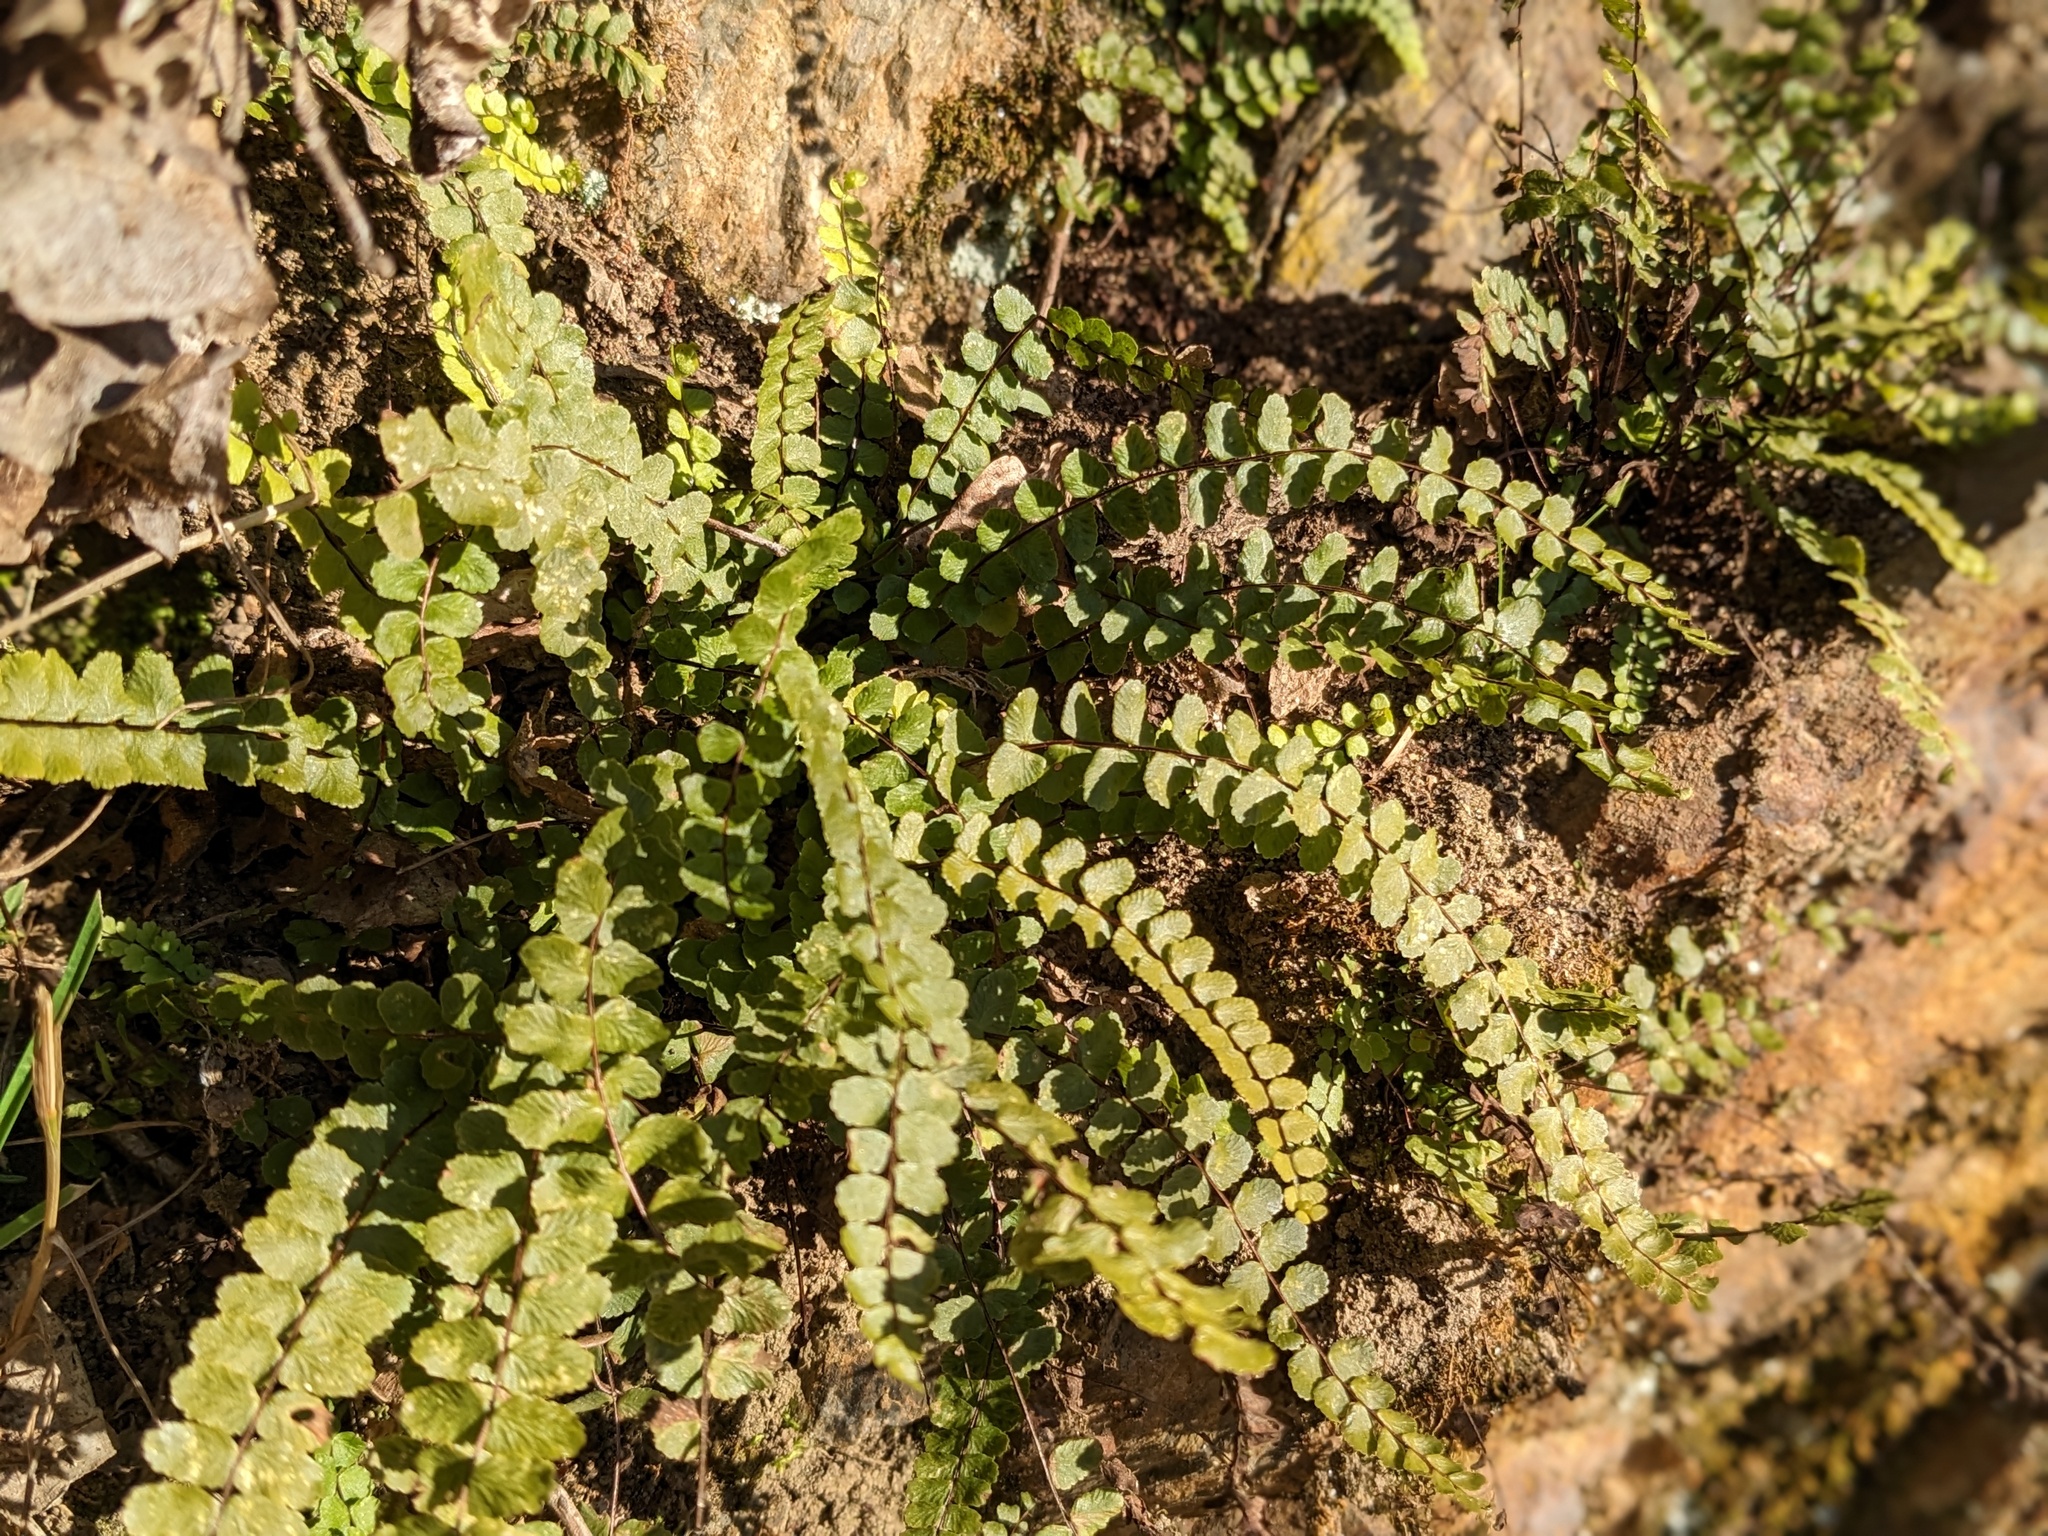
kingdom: Plantae
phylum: Tracheophyta
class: Polypodiopsida
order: Polypodiales
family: Aspleniaceae
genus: Asplenium
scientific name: Asplenium trichomanes
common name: Maidenhair spleenwort
